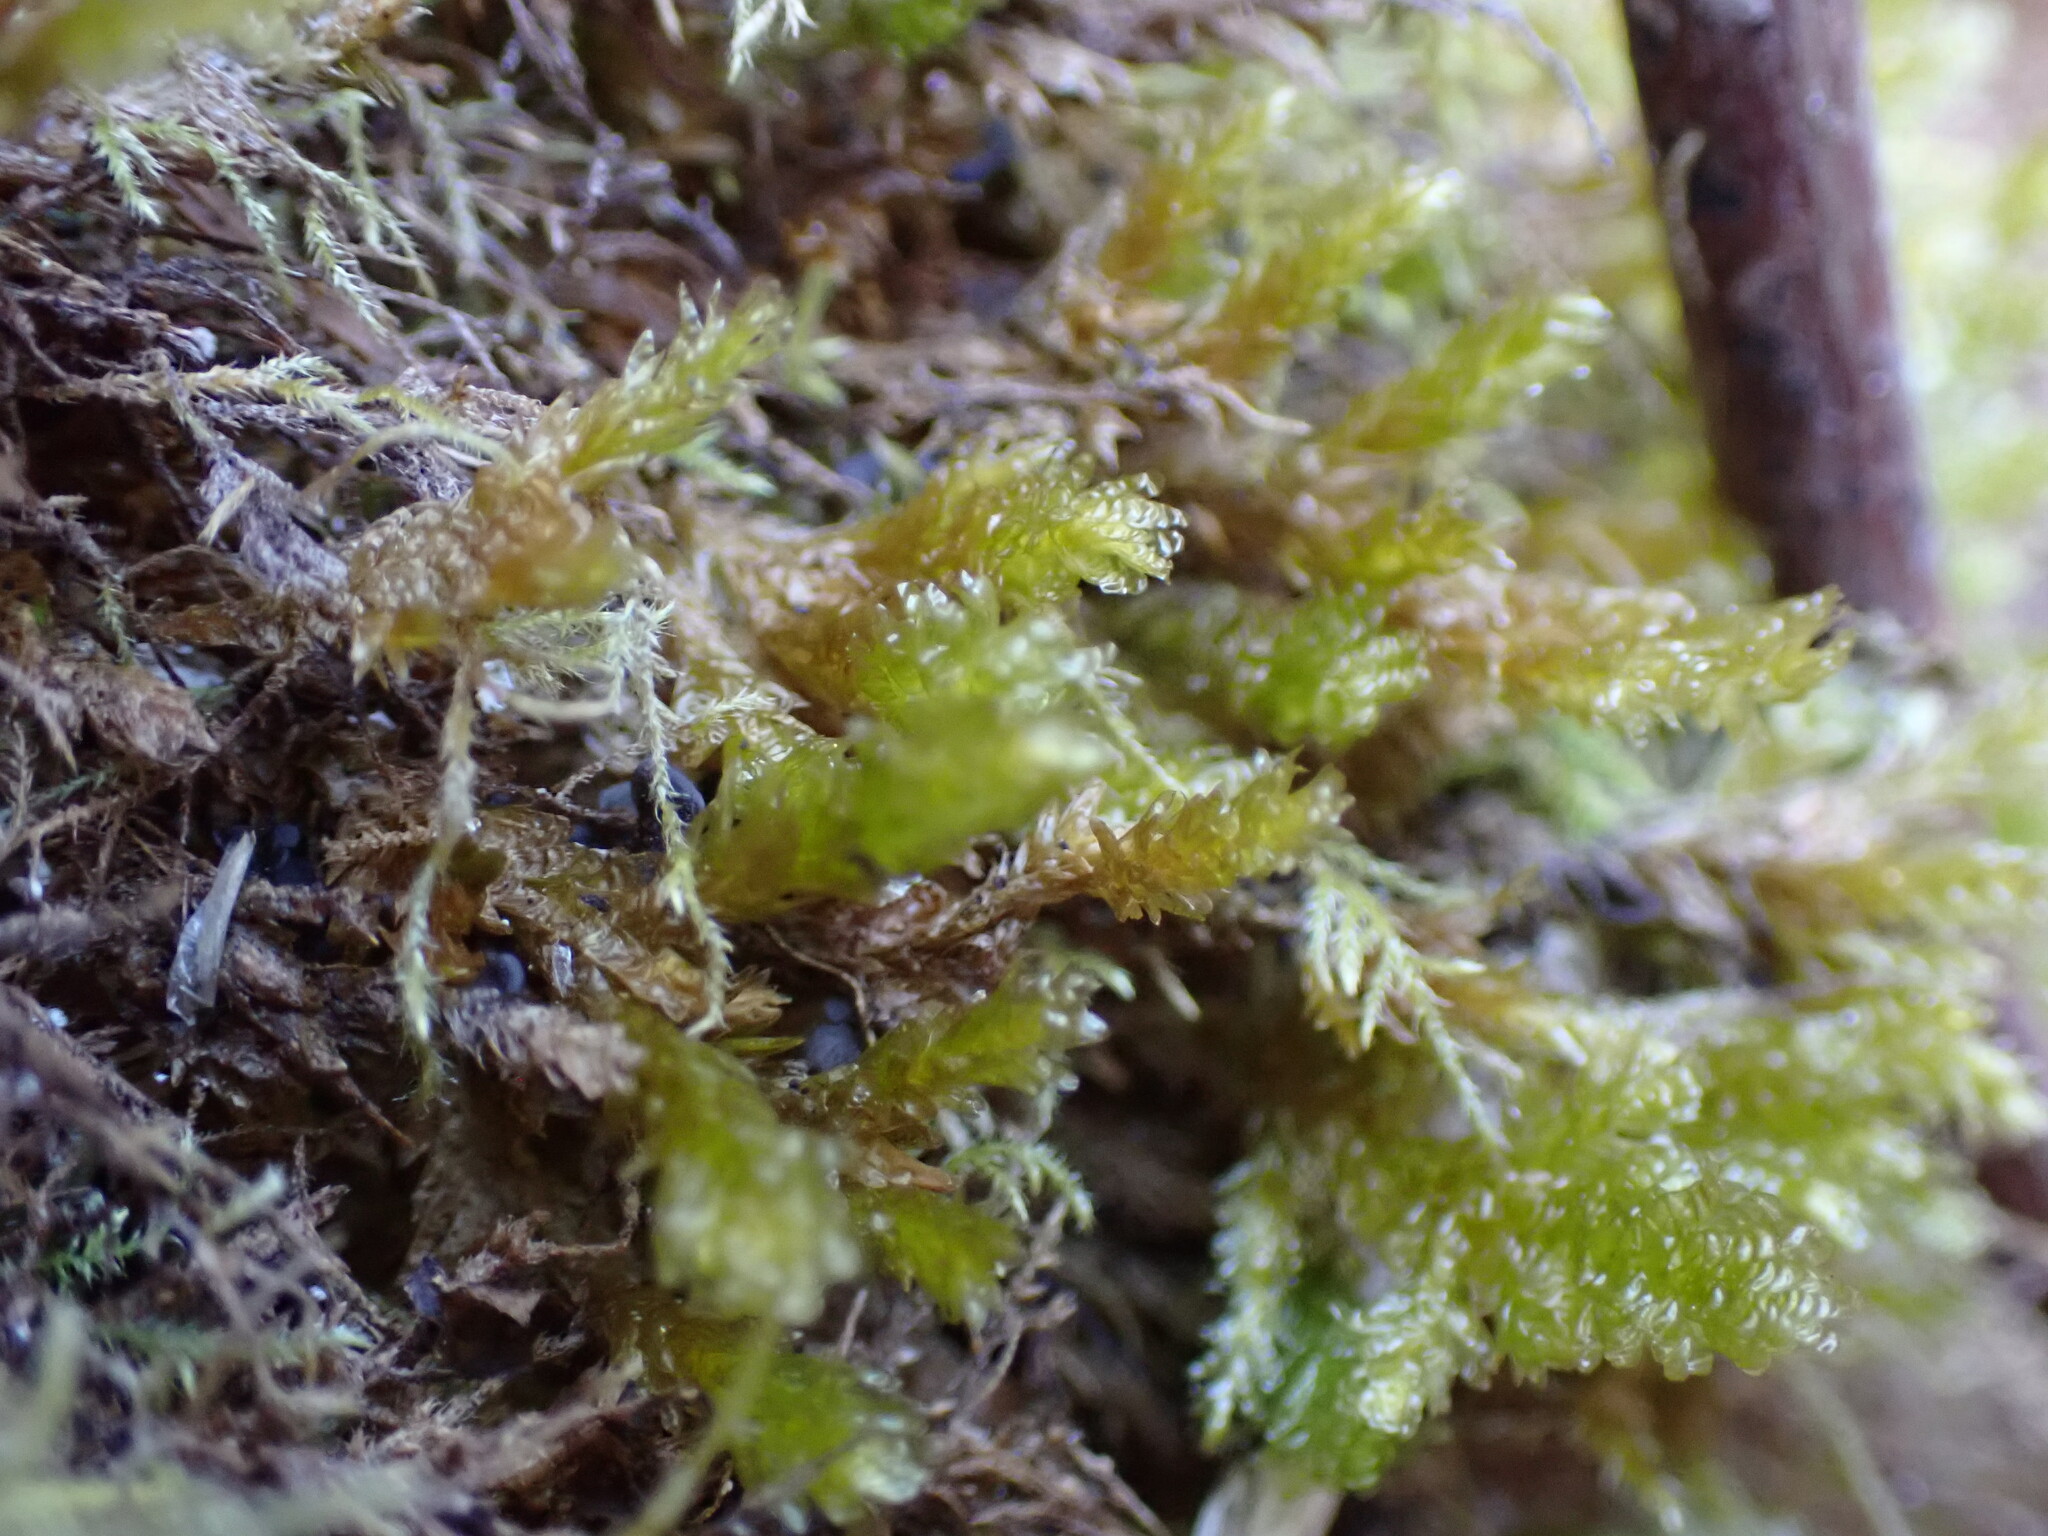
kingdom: Plantae
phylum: Bryophyta
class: Bryopsida
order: Hypnales
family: Neckeraceae
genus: Metaneckera
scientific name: Metaneckera menziesii
